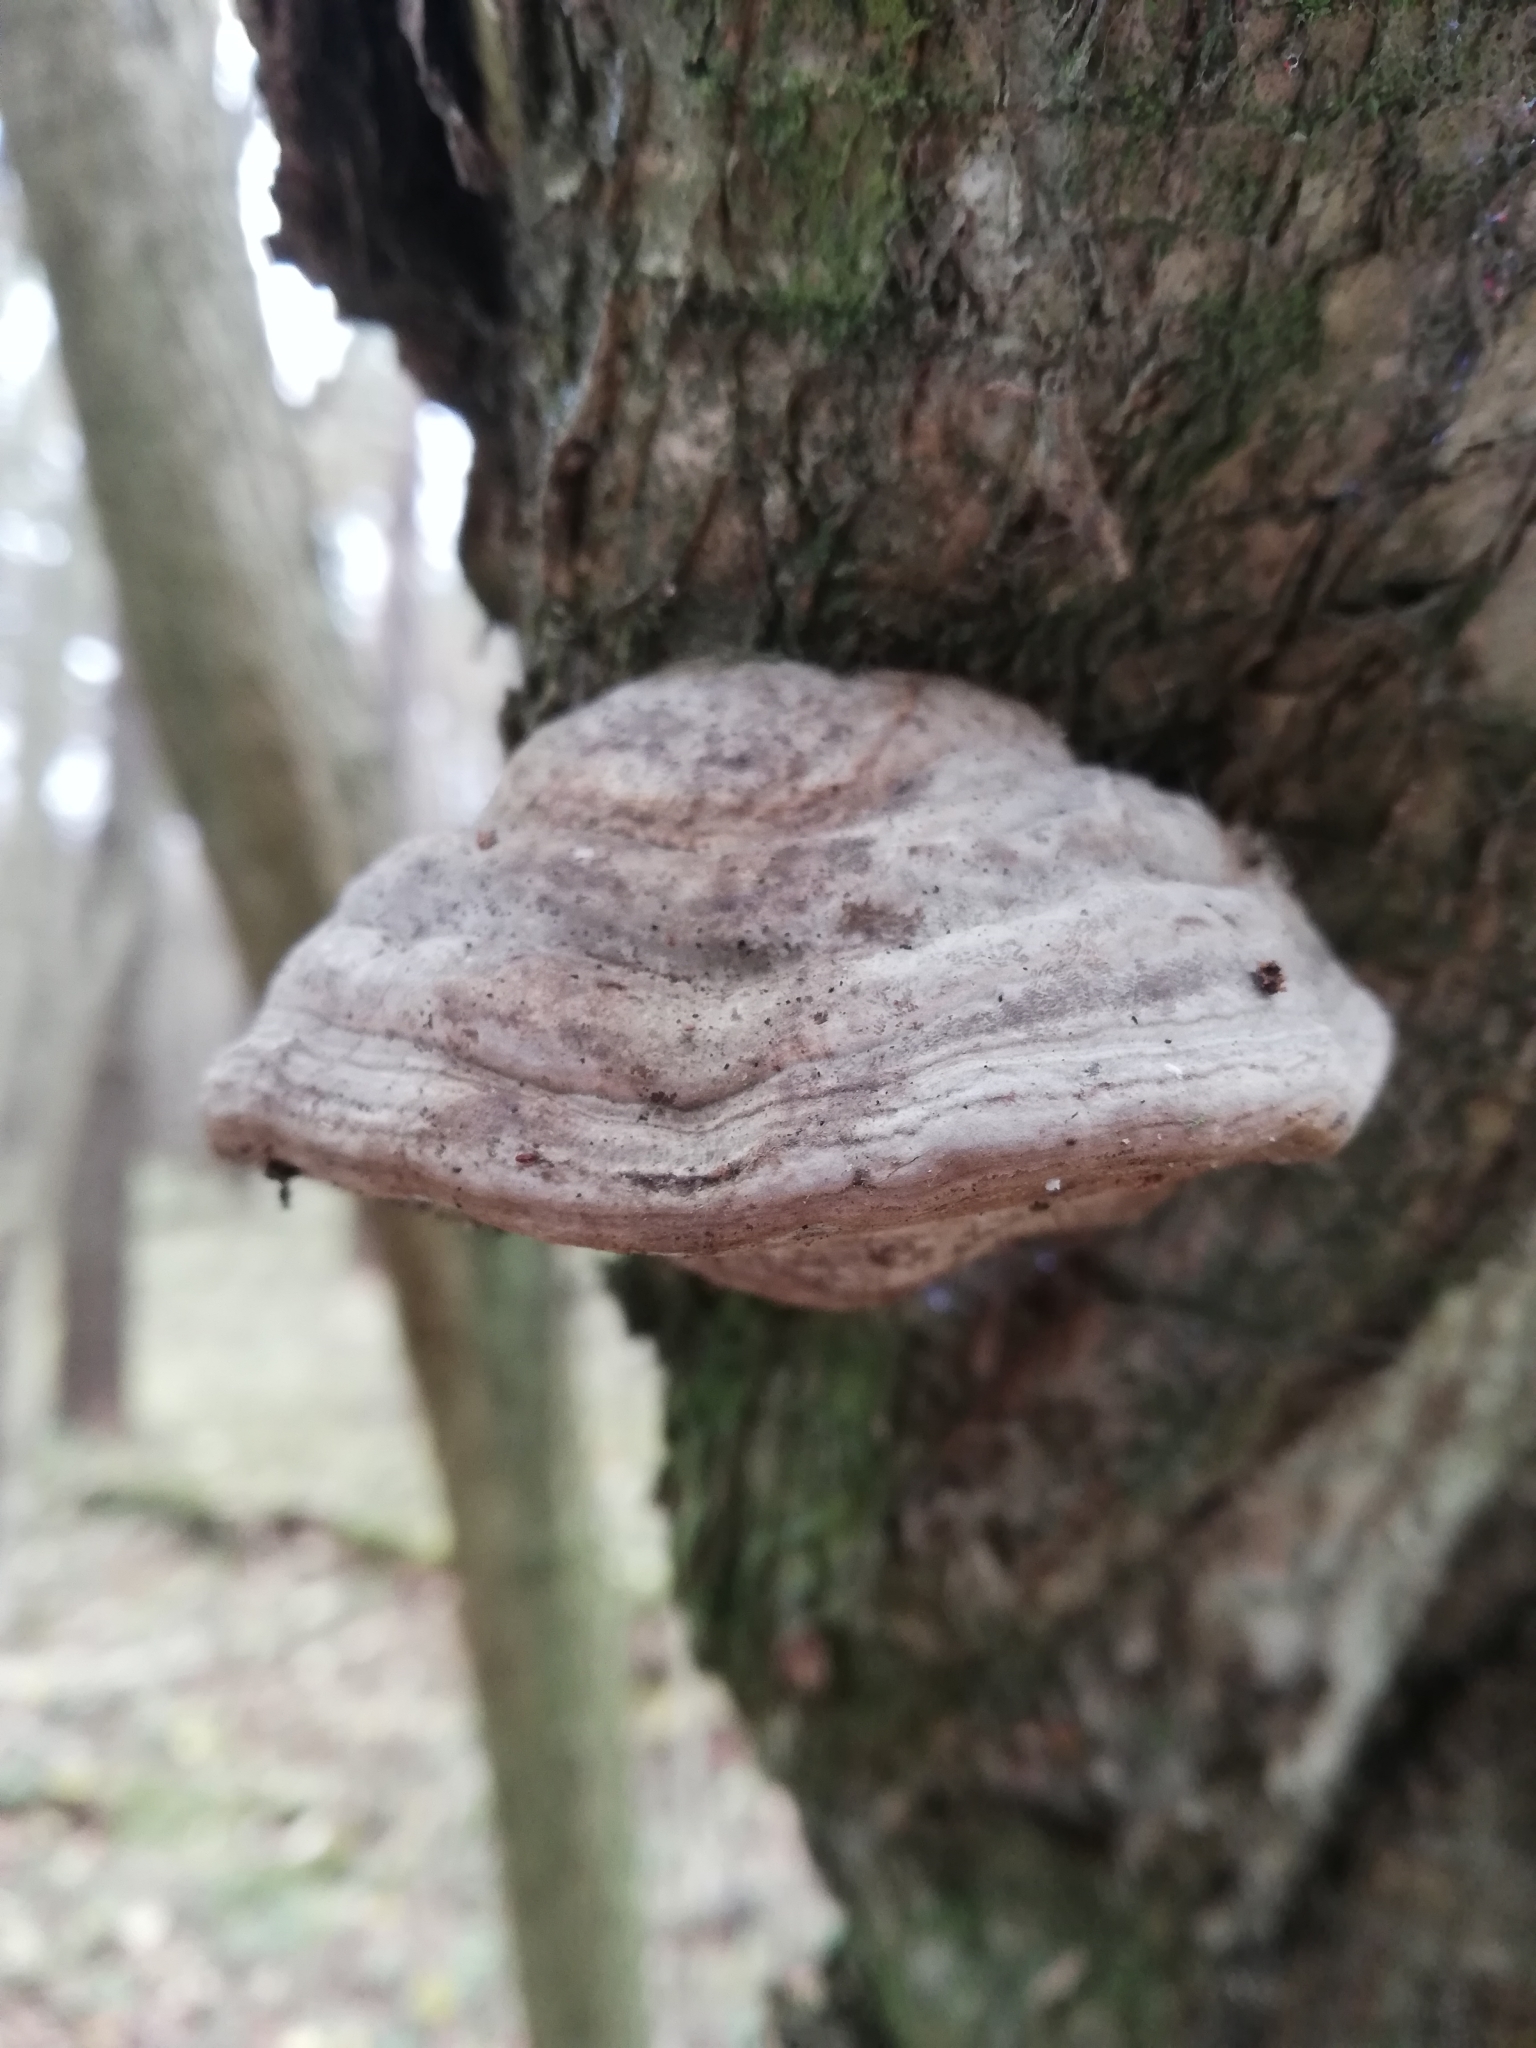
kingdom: Fungi
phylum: Basidiomycota
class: Agaricomycetes
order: Polyporales
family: Polyporaceae
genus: Fomes
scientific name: Fomes fomentarius
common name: Hoof fungus
